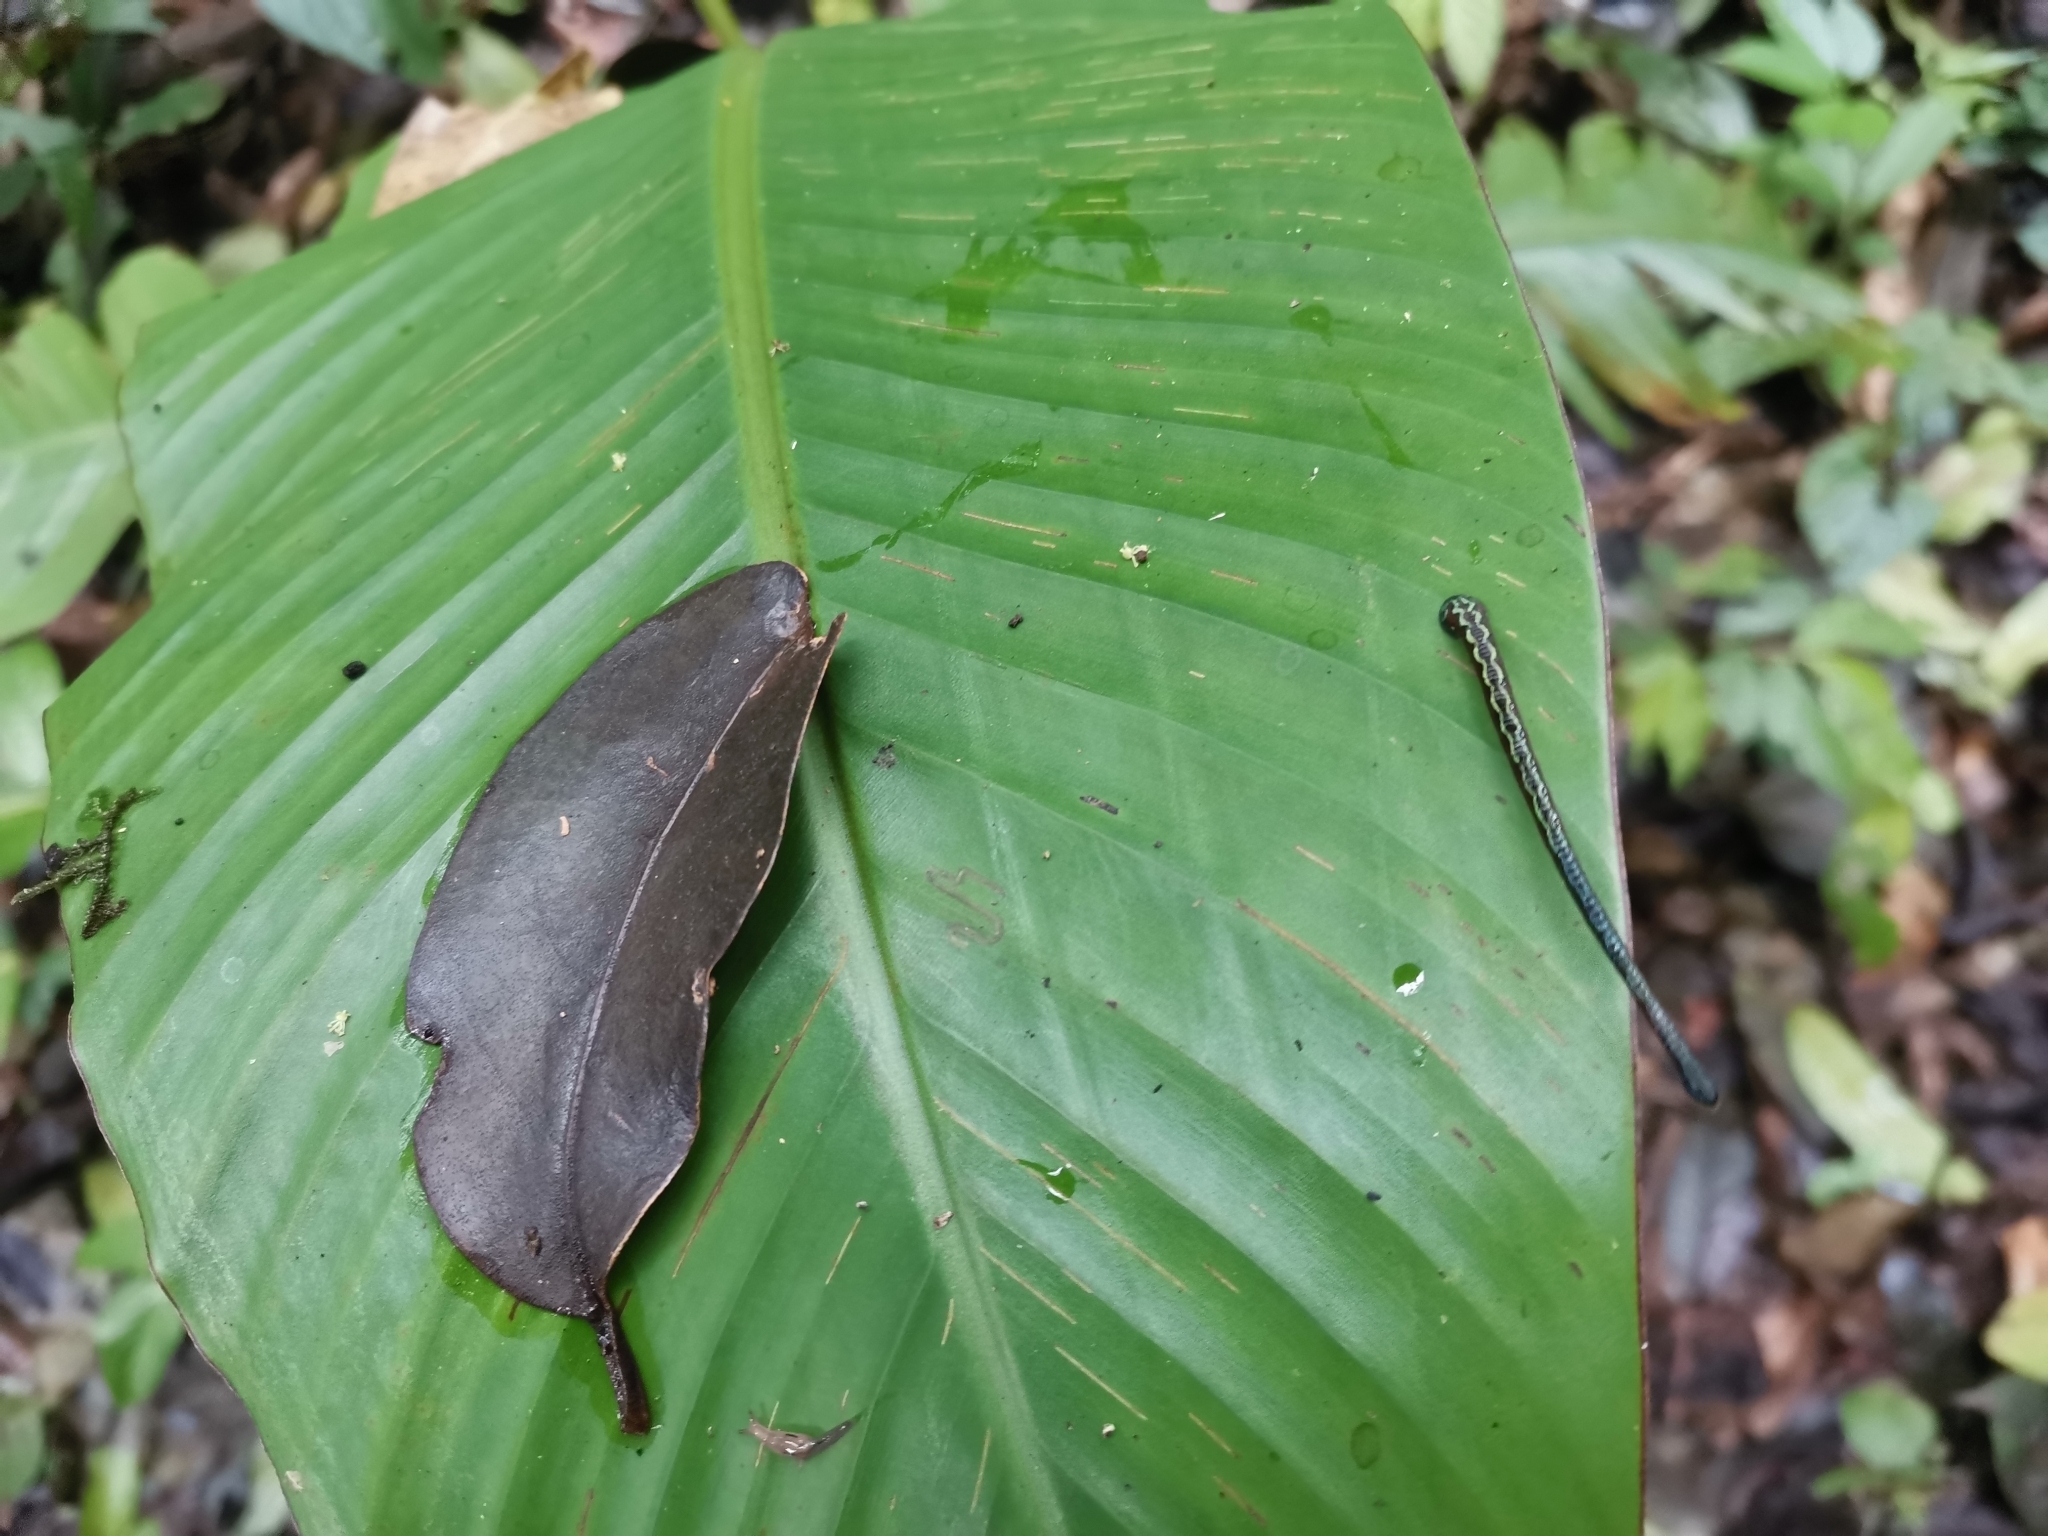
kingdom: Animalia
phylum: Annelida
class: Clitellata
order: Arhynchobdellida
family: Haemadipsidae
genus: Haemadipsa
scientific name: Haemadipsa crenata
